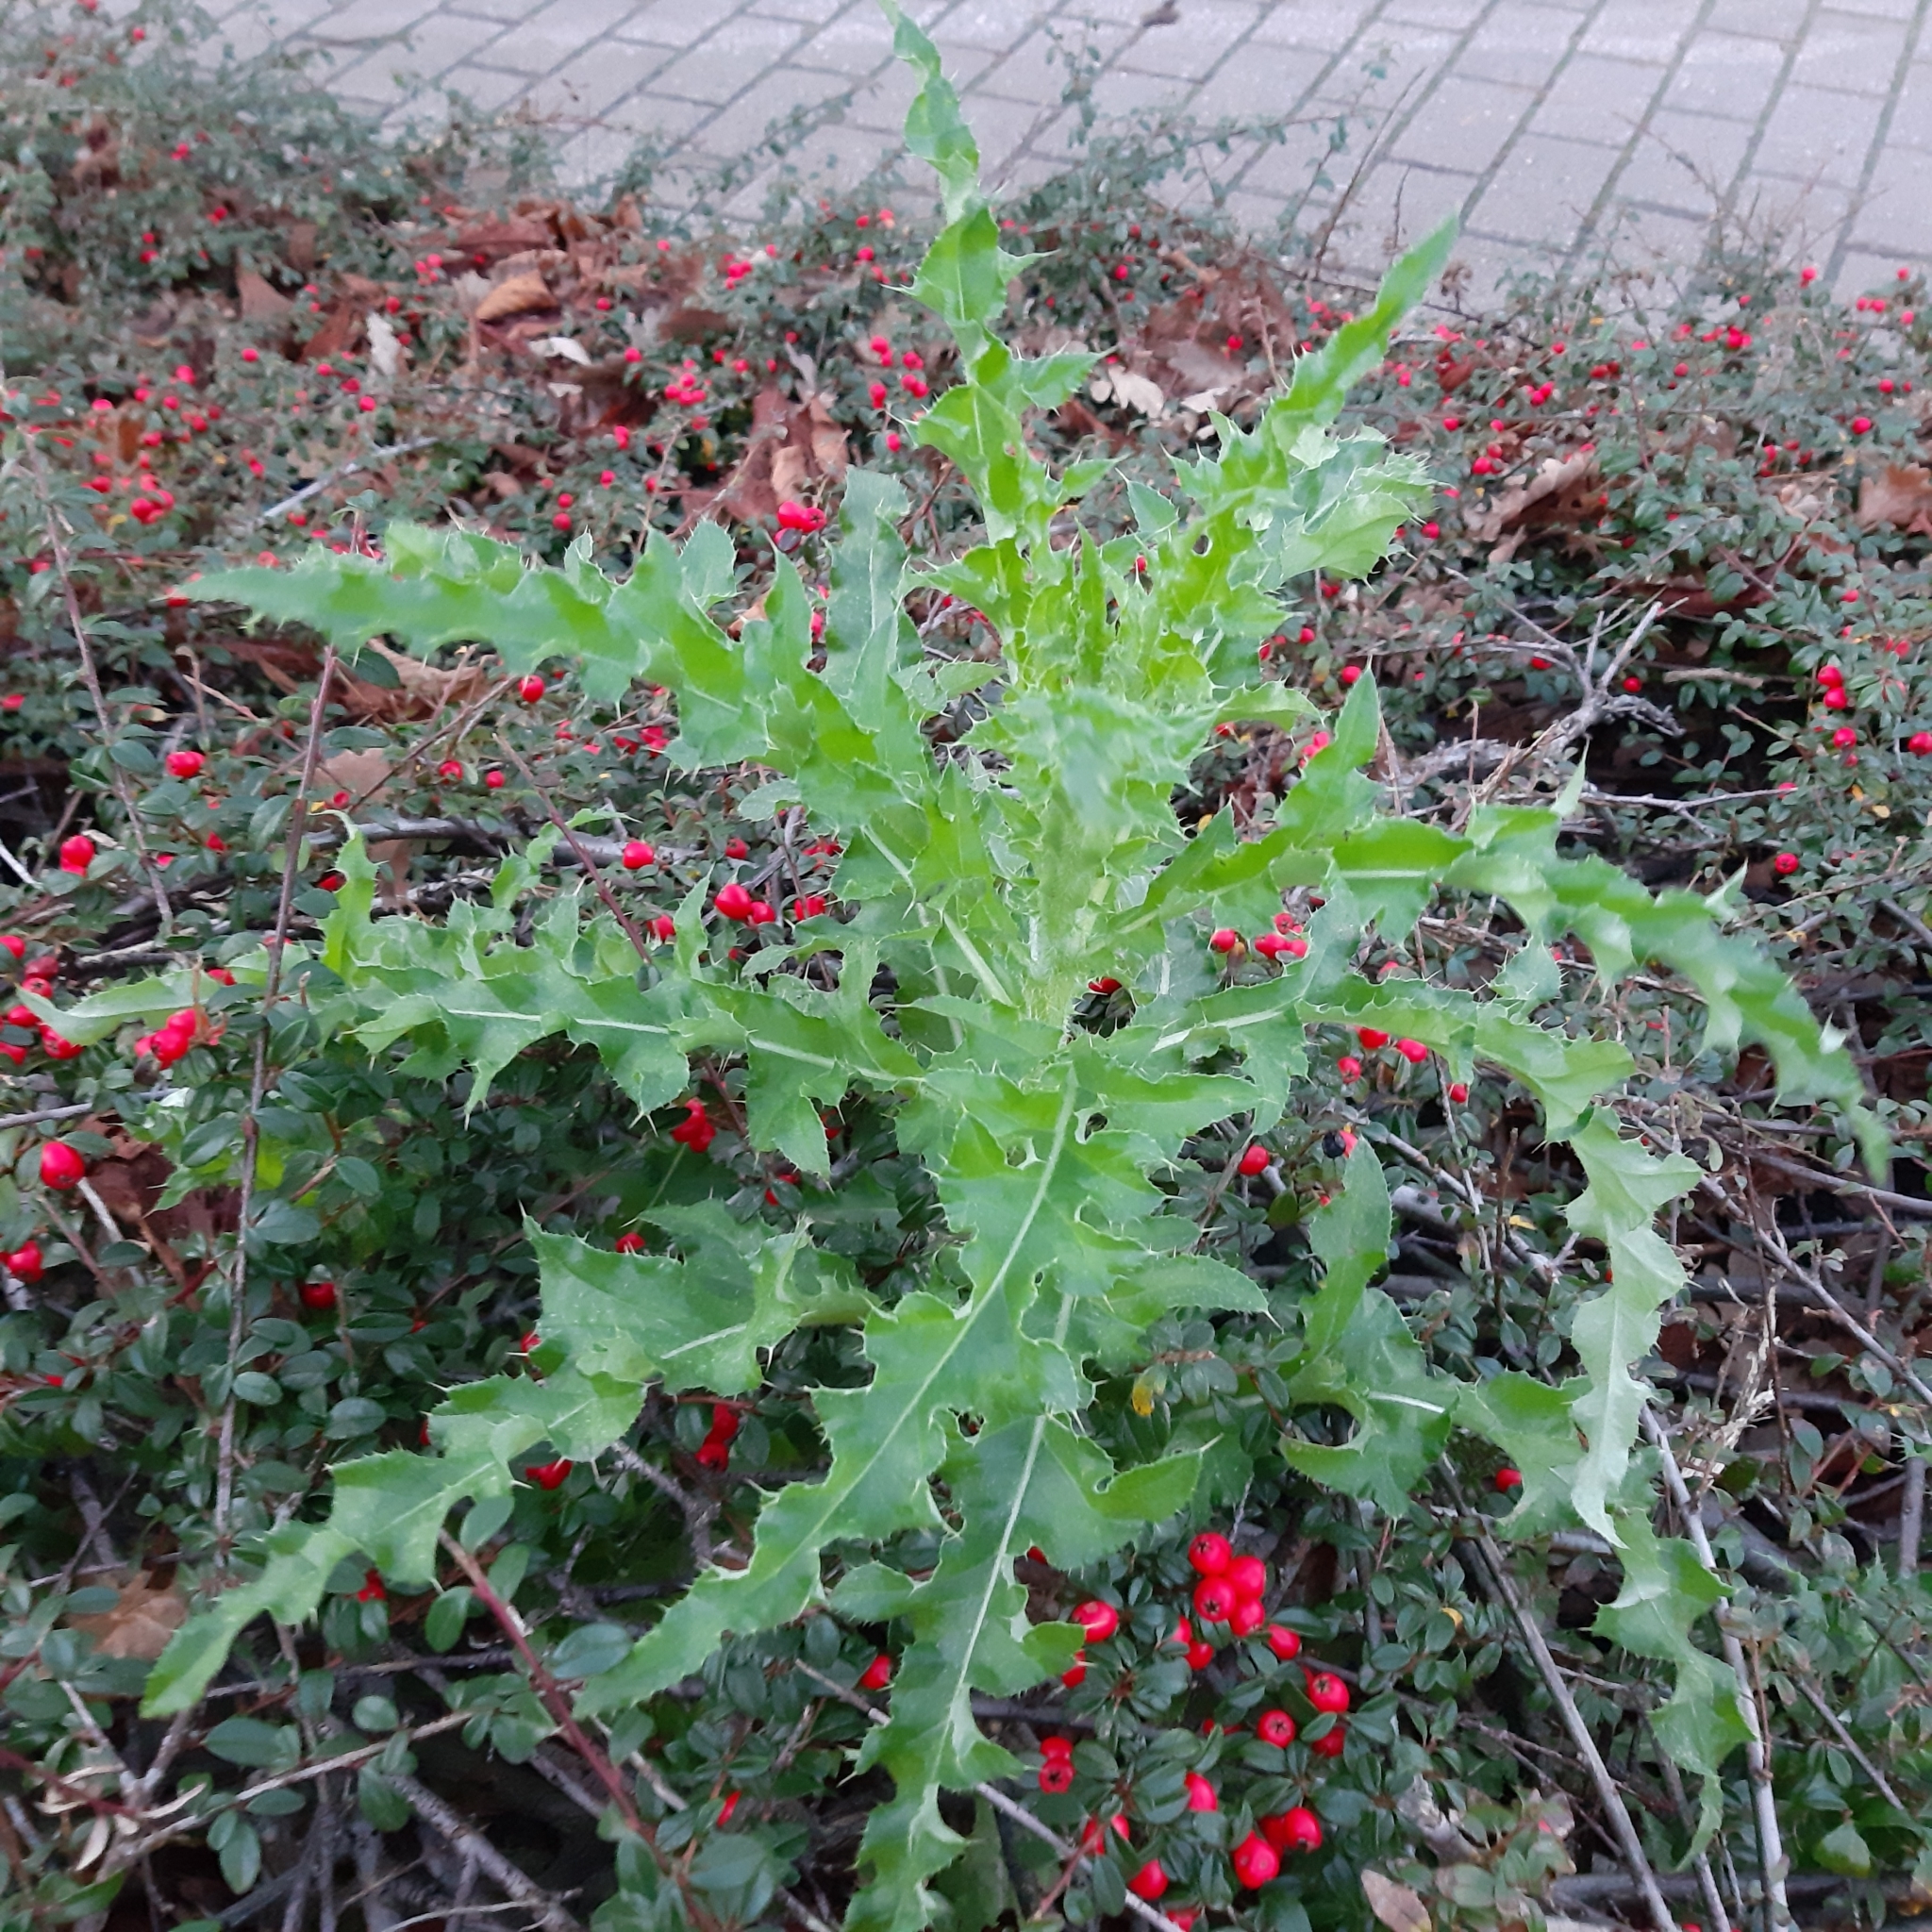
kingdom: Plantae
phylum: Tracheophyta
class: Magnoliopsida
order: Asterales
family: Asteraceae
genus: Cirsium
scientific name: Cirsium arvense
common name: Creeping thistle
